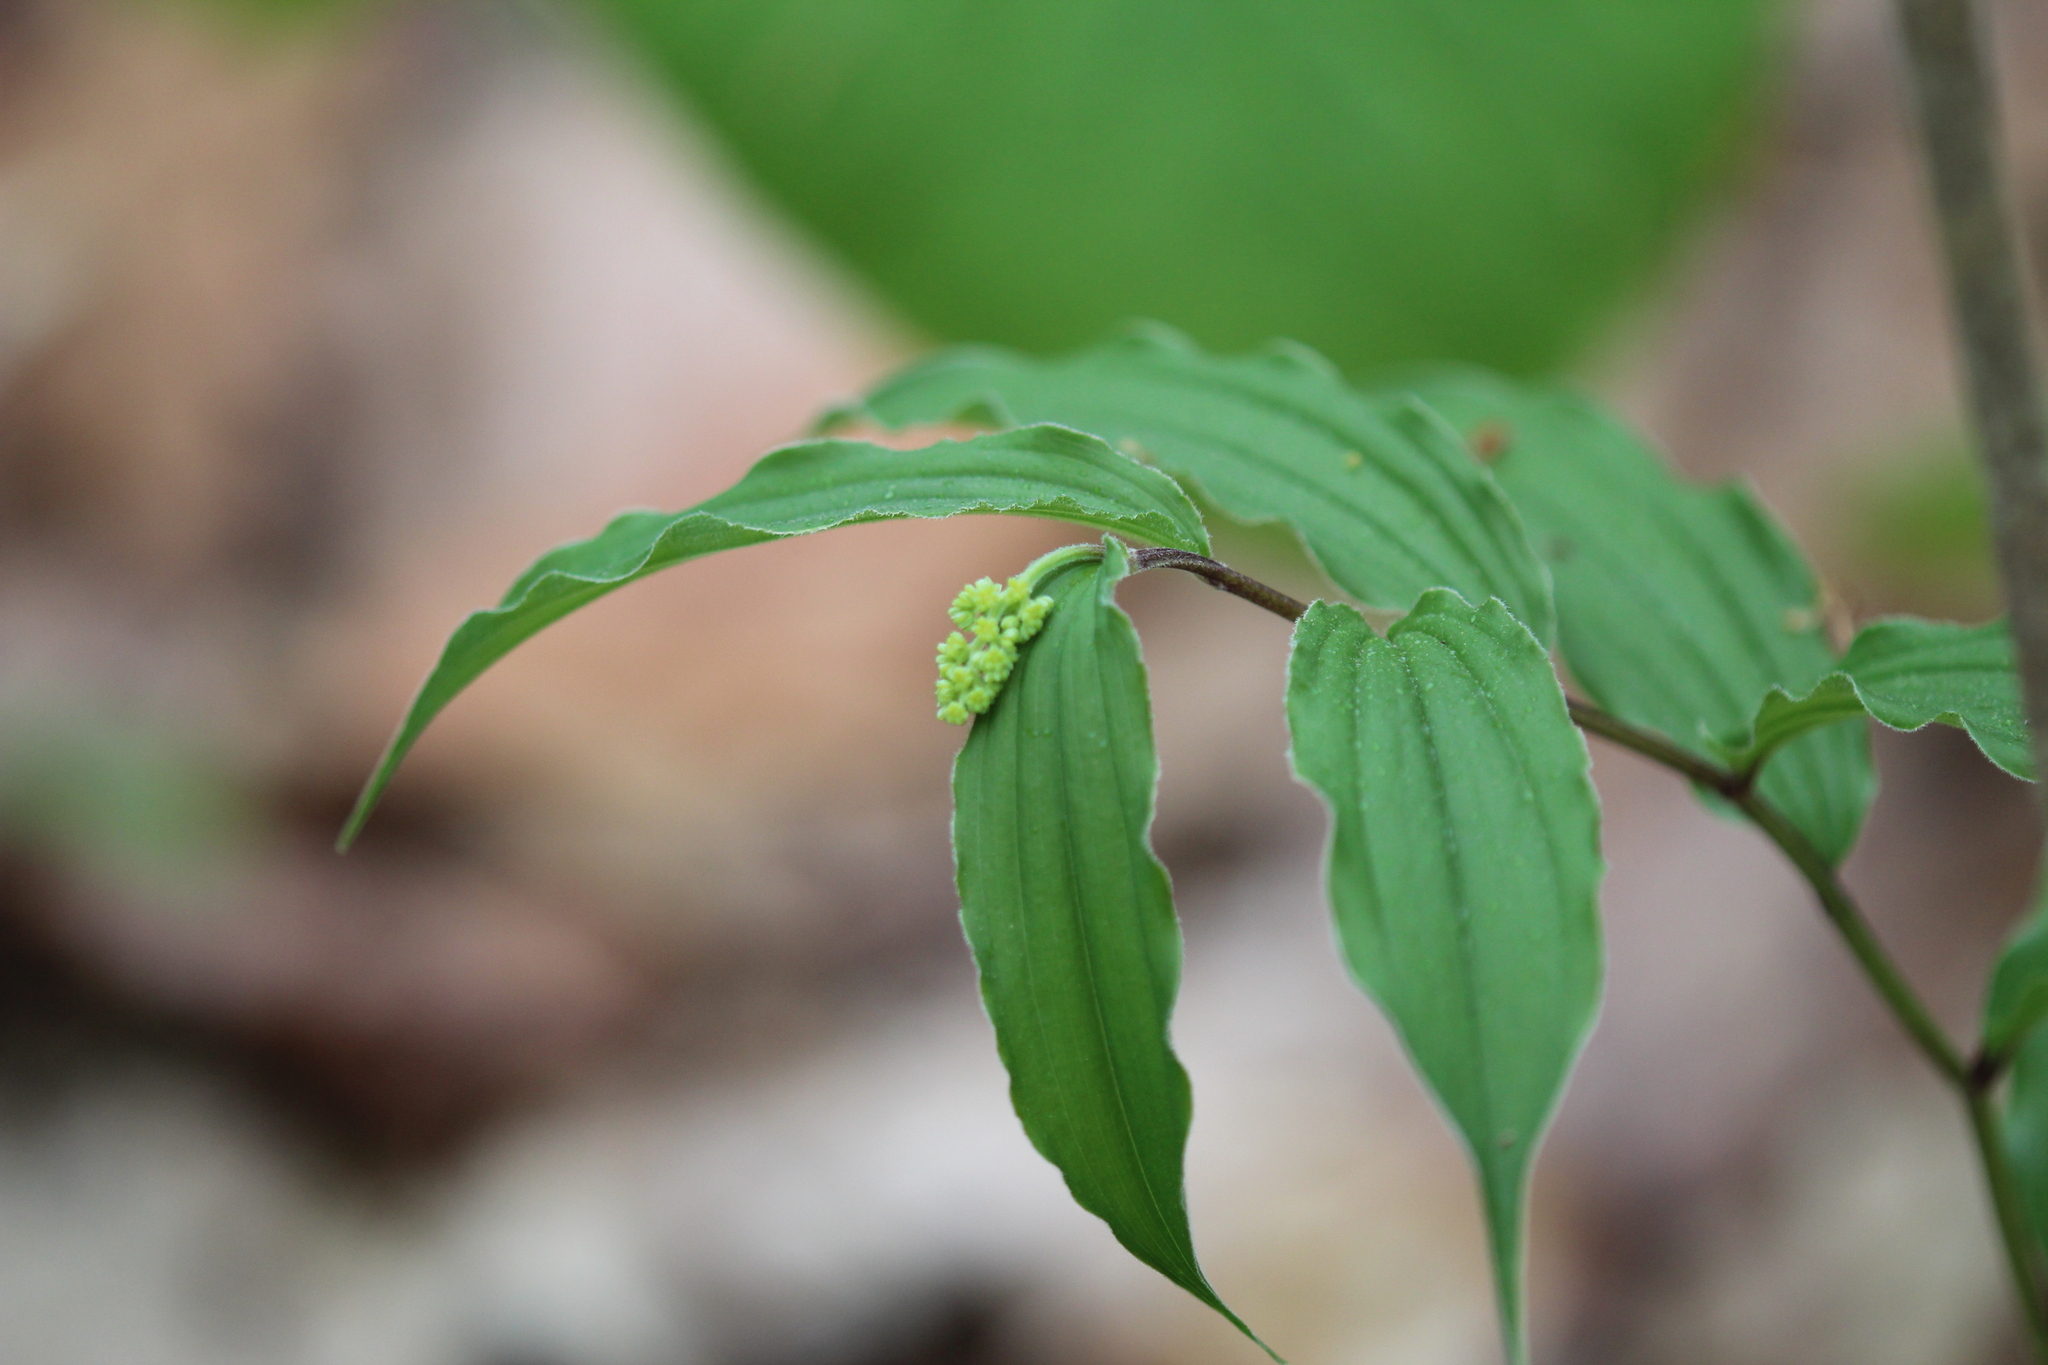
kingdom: Plantae
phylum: Tracheophyta
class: Liliopsida
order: Asparagales
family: Asparagaceae
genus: Maianthemum
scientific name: Maianthemum racemosum
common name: False spikenard
